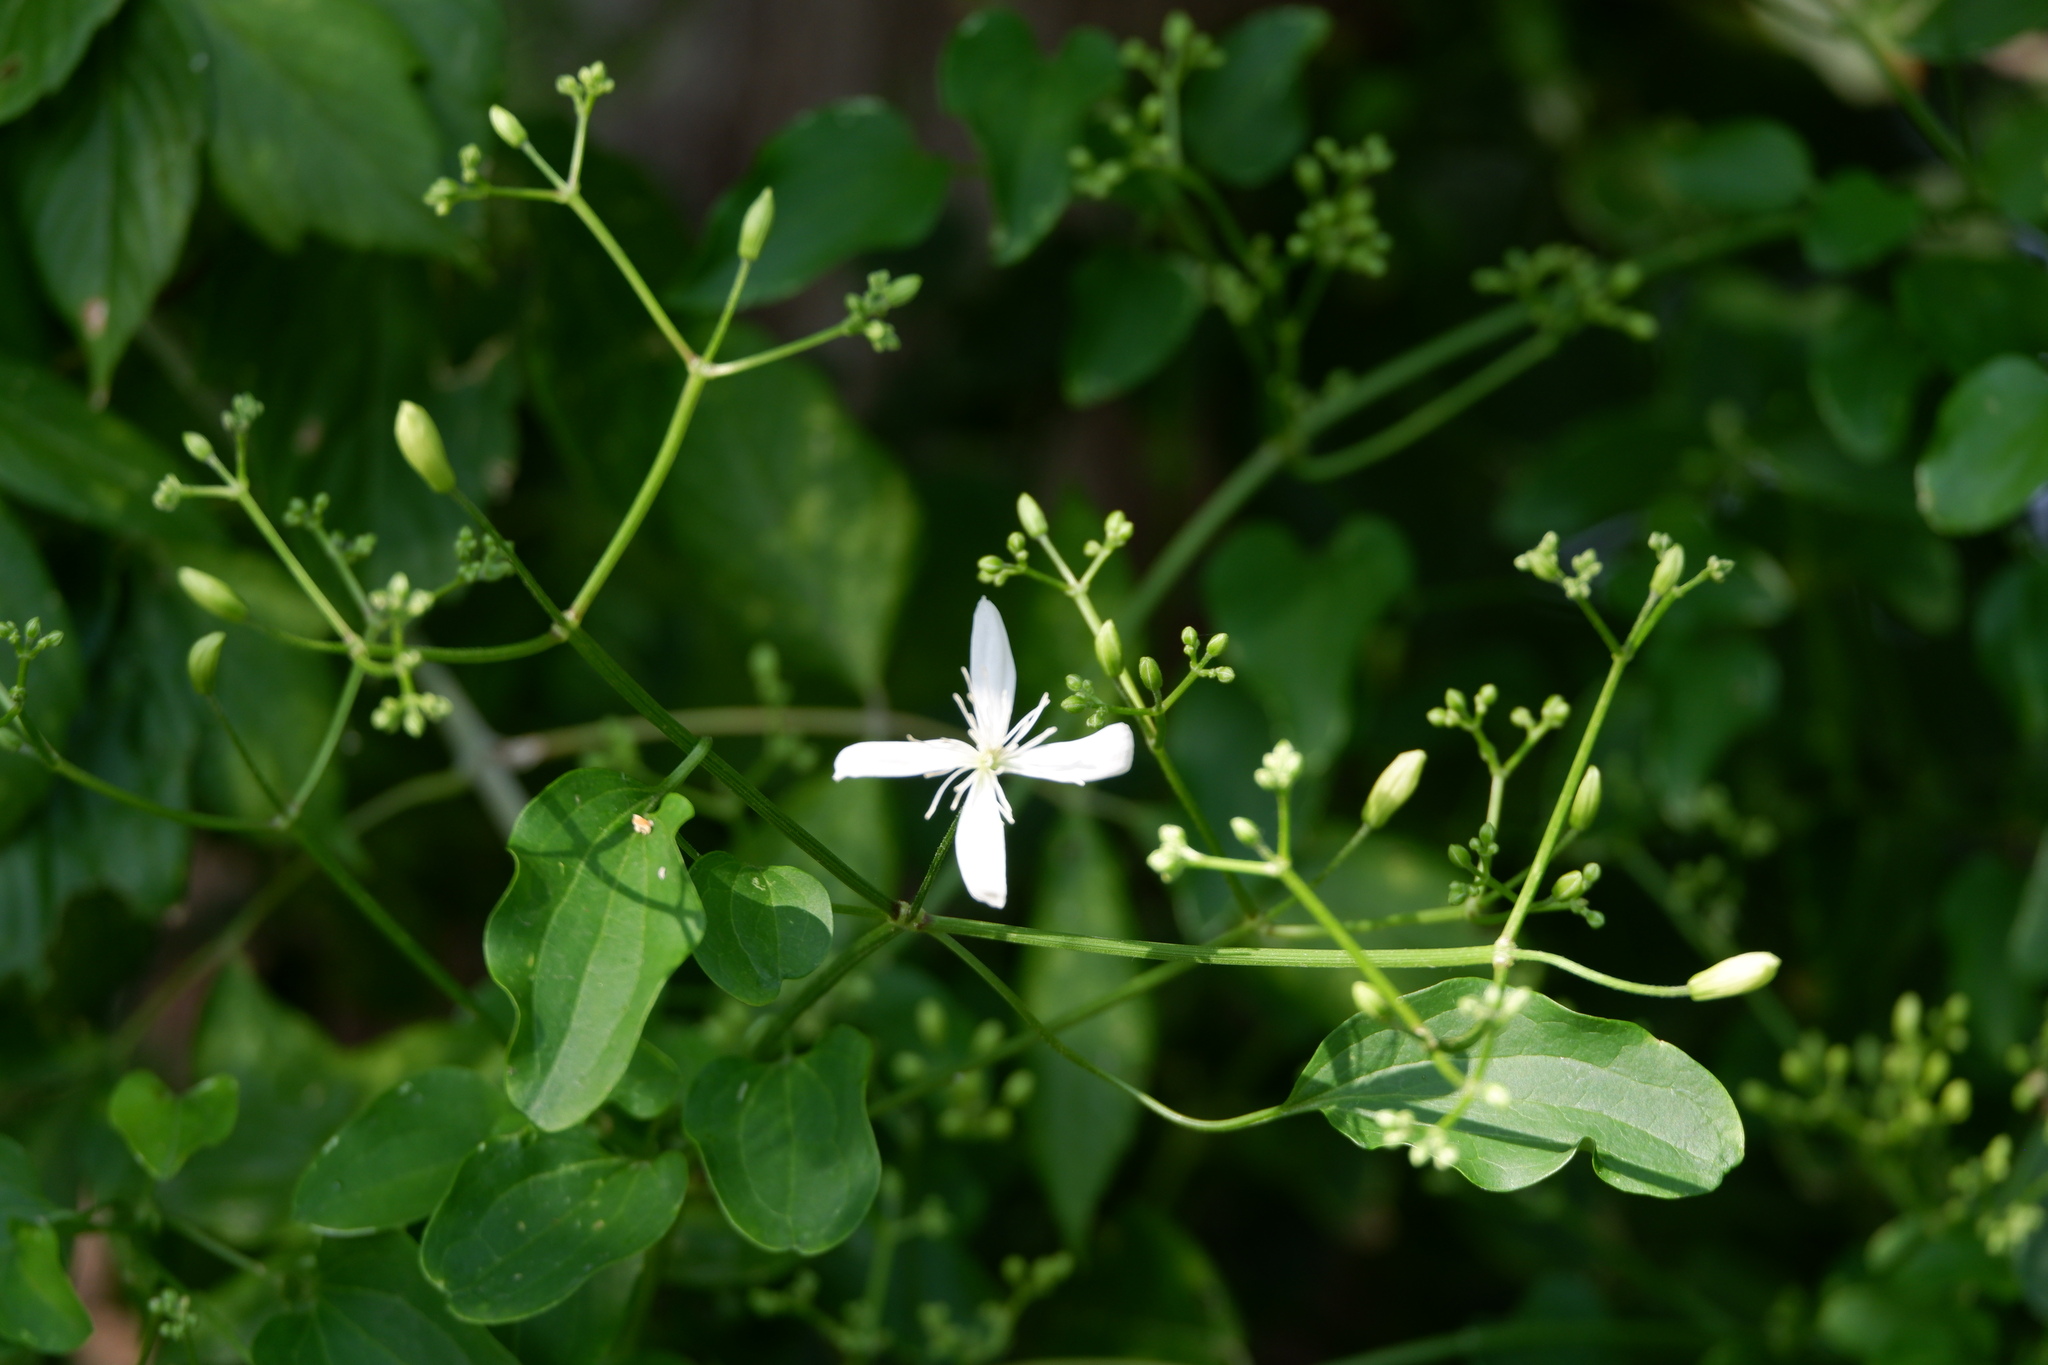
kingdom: Plantae
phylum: Tracheophyta
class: Magnoliopsida
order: Ranunculales
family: Ranunculaceae
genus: Clematis
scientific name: Clematis terniflora
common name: Sweet autumn clematis
